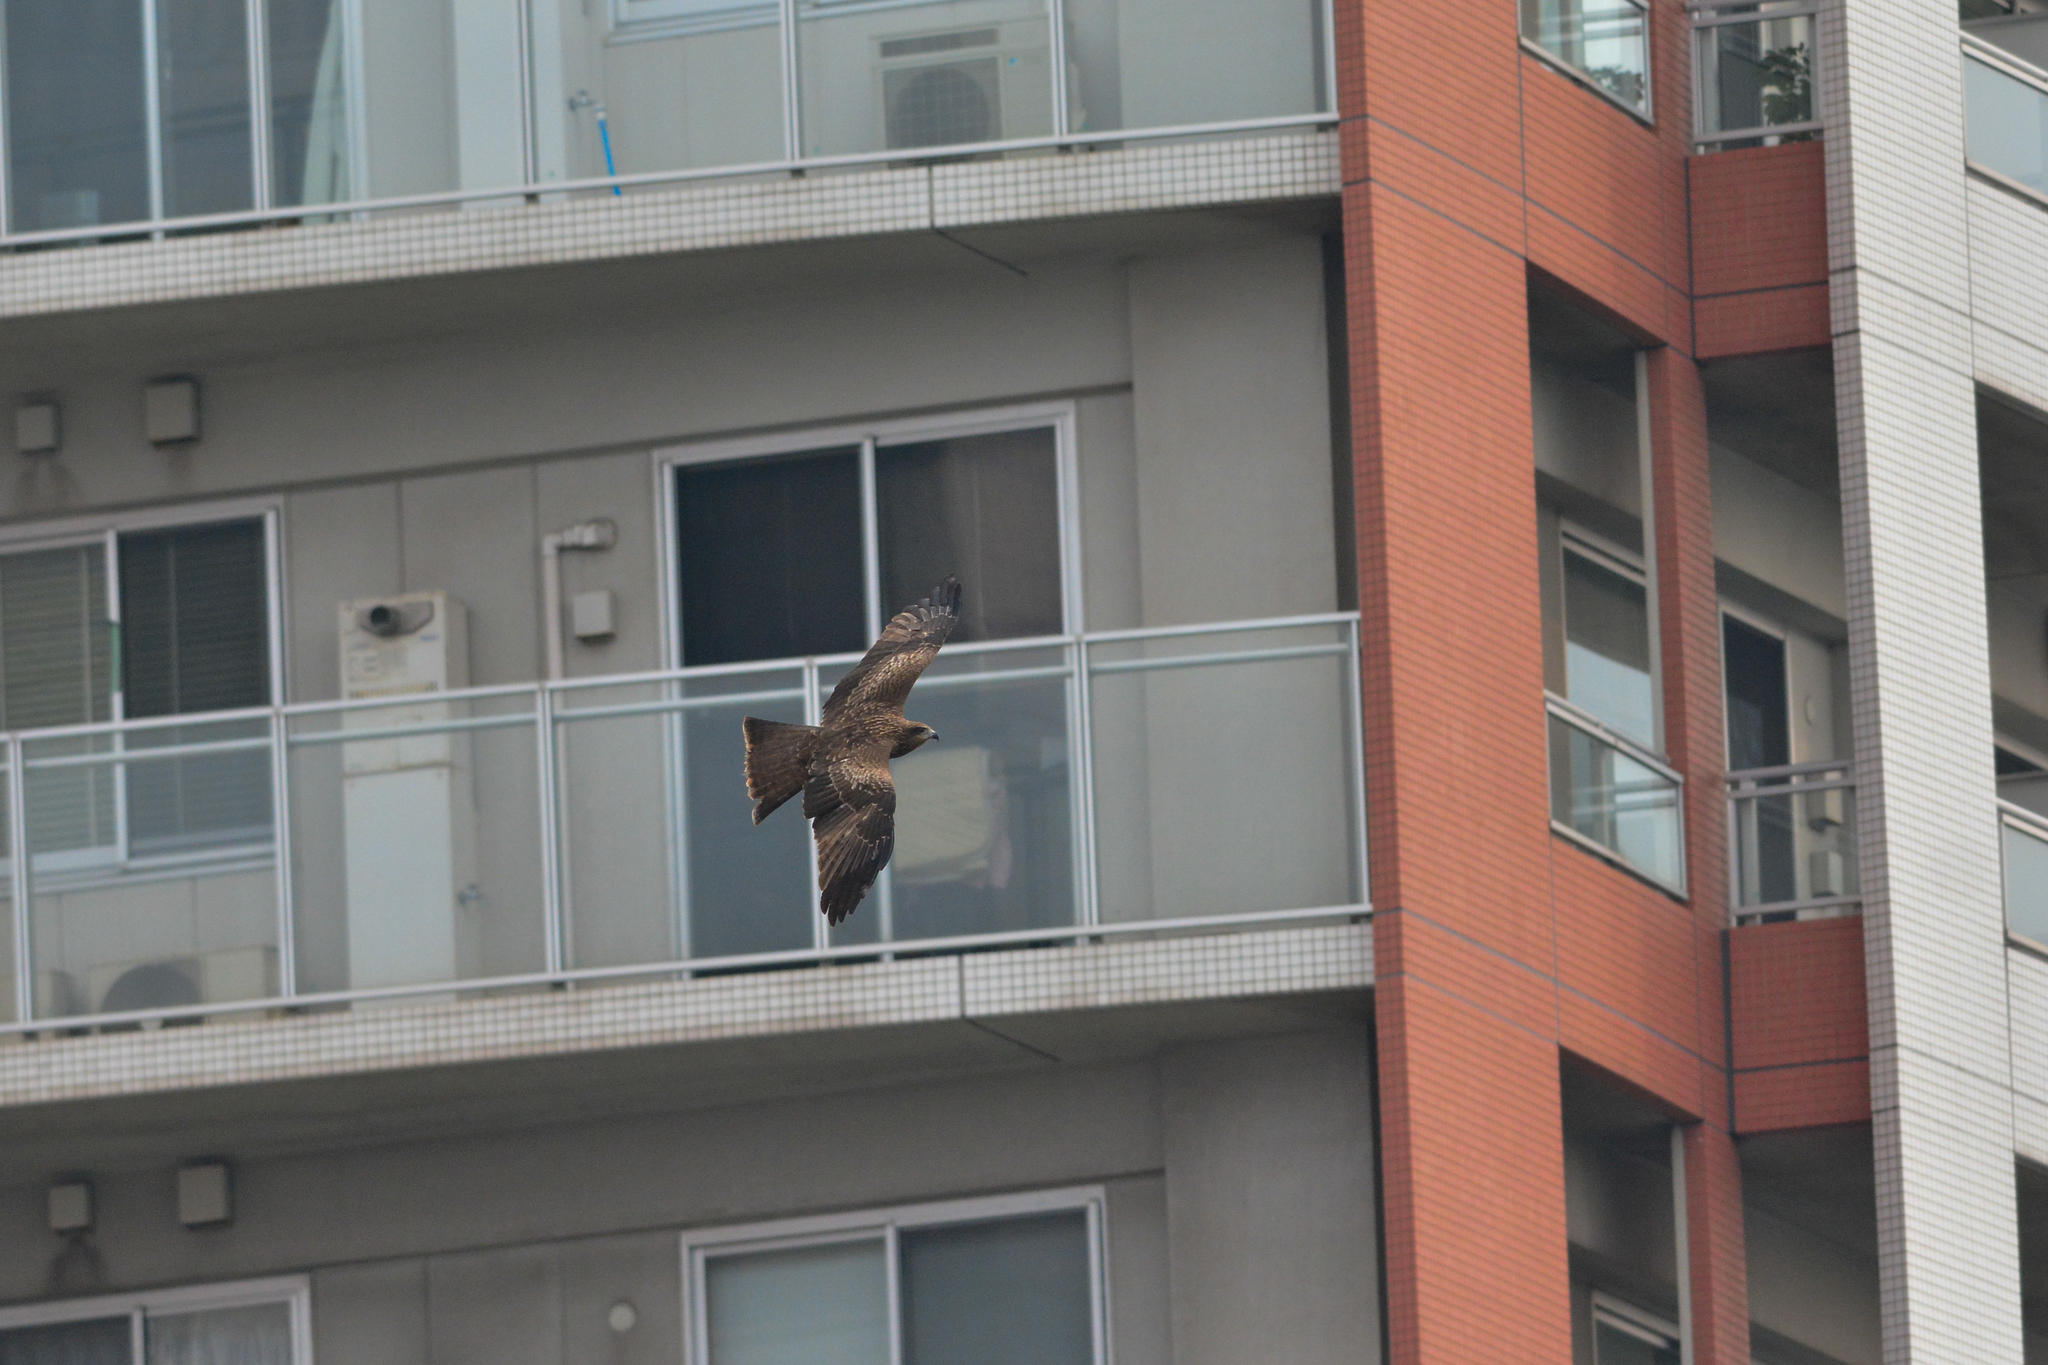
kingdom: Animalia
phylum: Chordata
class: Aves
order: Accipitriformes
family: Accipitridae
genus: Milvus
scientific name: Milvus migrans
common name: Black kite
